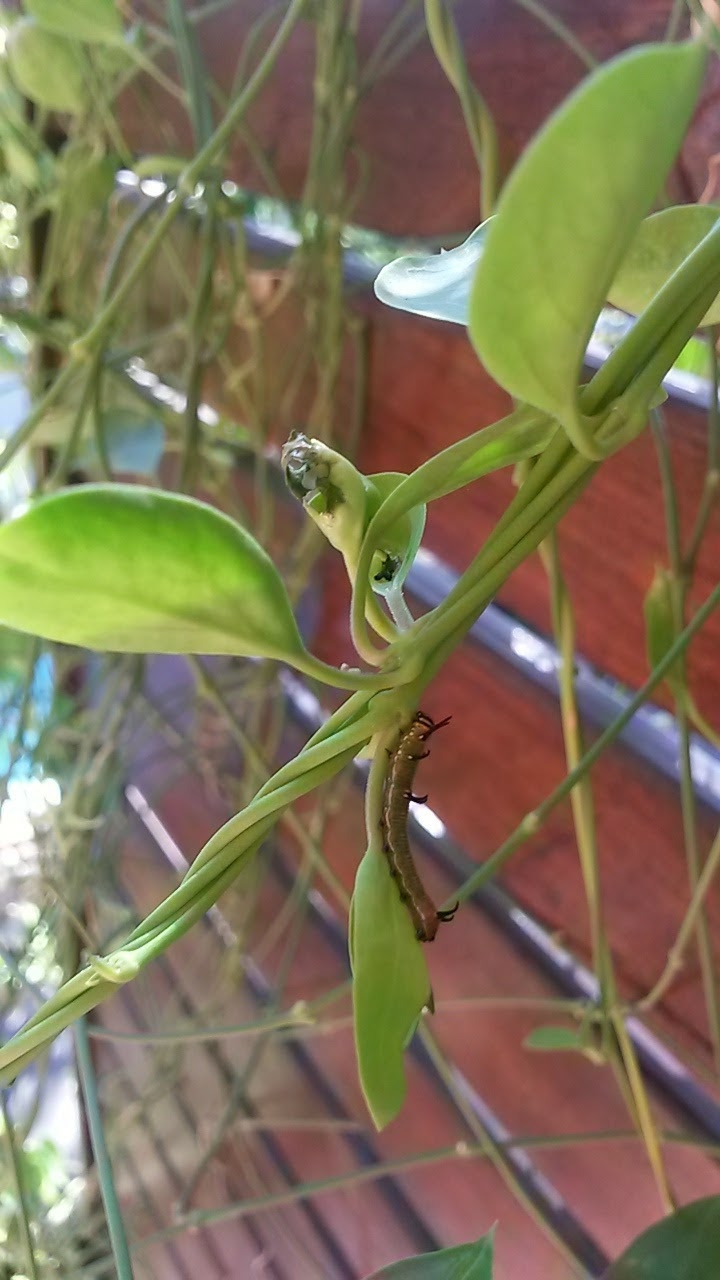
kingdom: Animalia
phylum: Arthropoda
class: Insecta
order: Lepidoptera
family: Nymphalidae
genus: Euploea
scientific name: Euploea core
